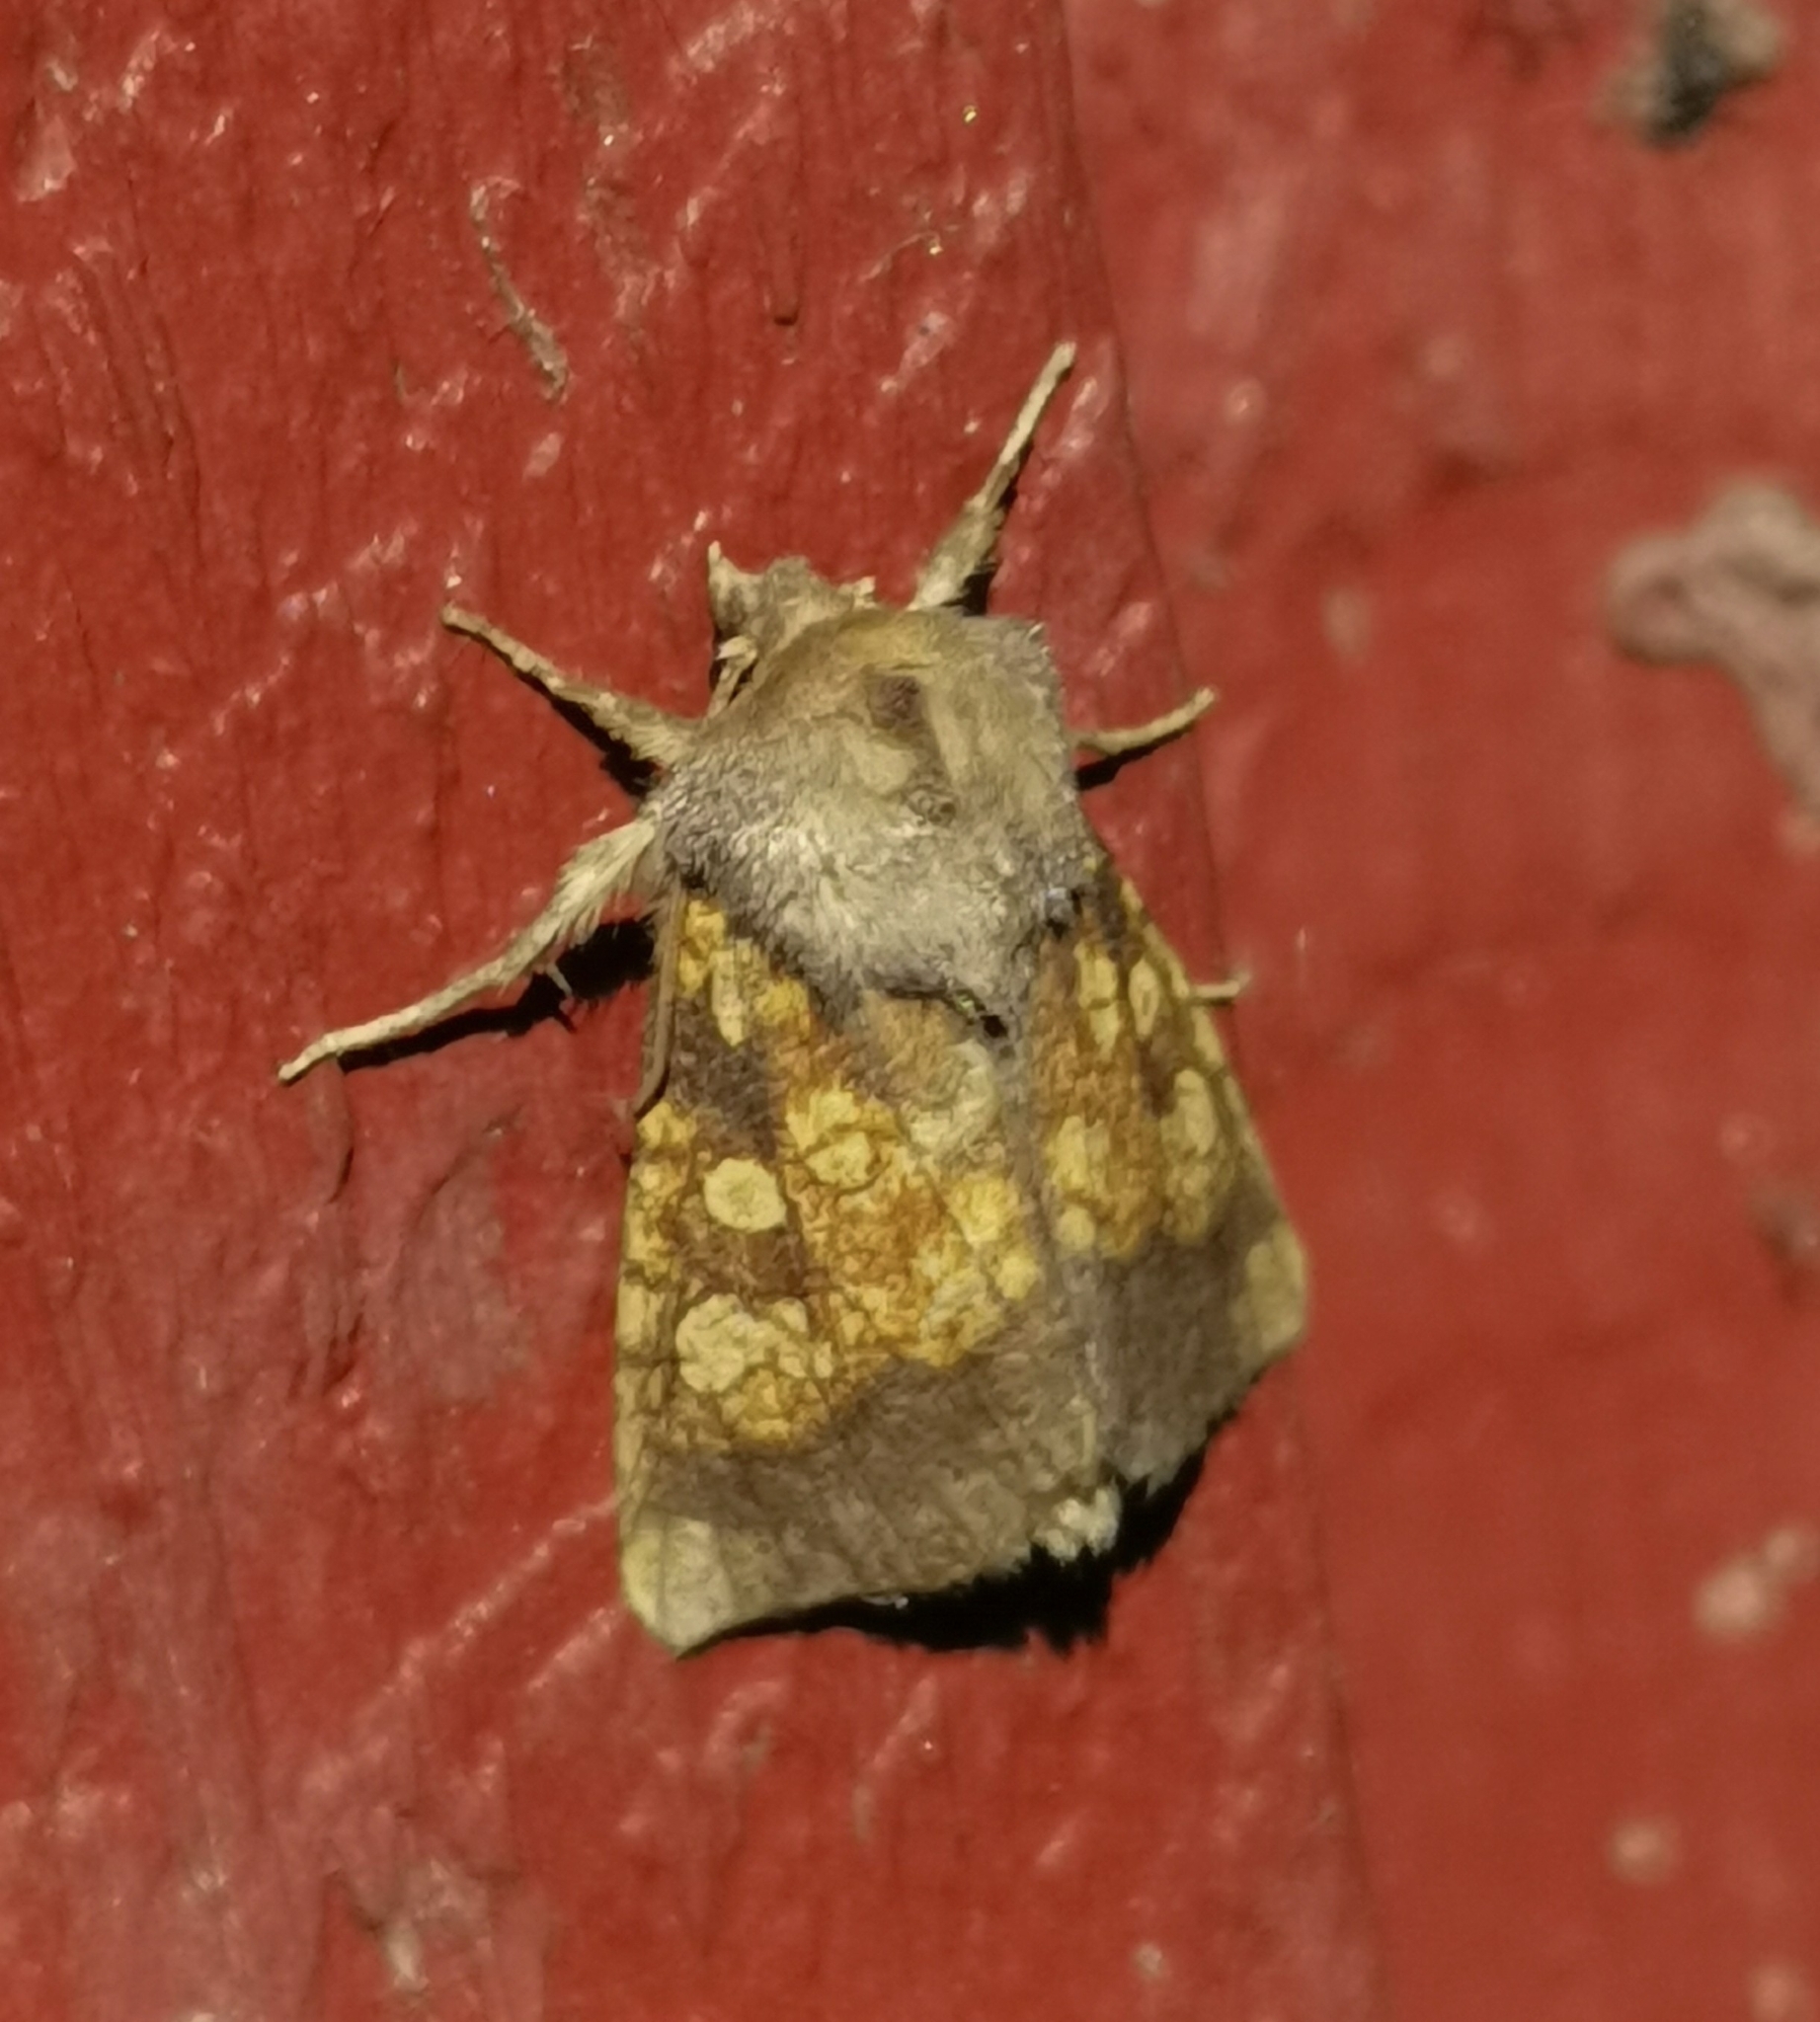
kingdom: Animalia
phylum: Arthropoda
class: Insecta
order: Lepidoptera
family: Noctuidae
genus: Gortyna
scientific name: Gortyna flavago
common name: Frosted orange
